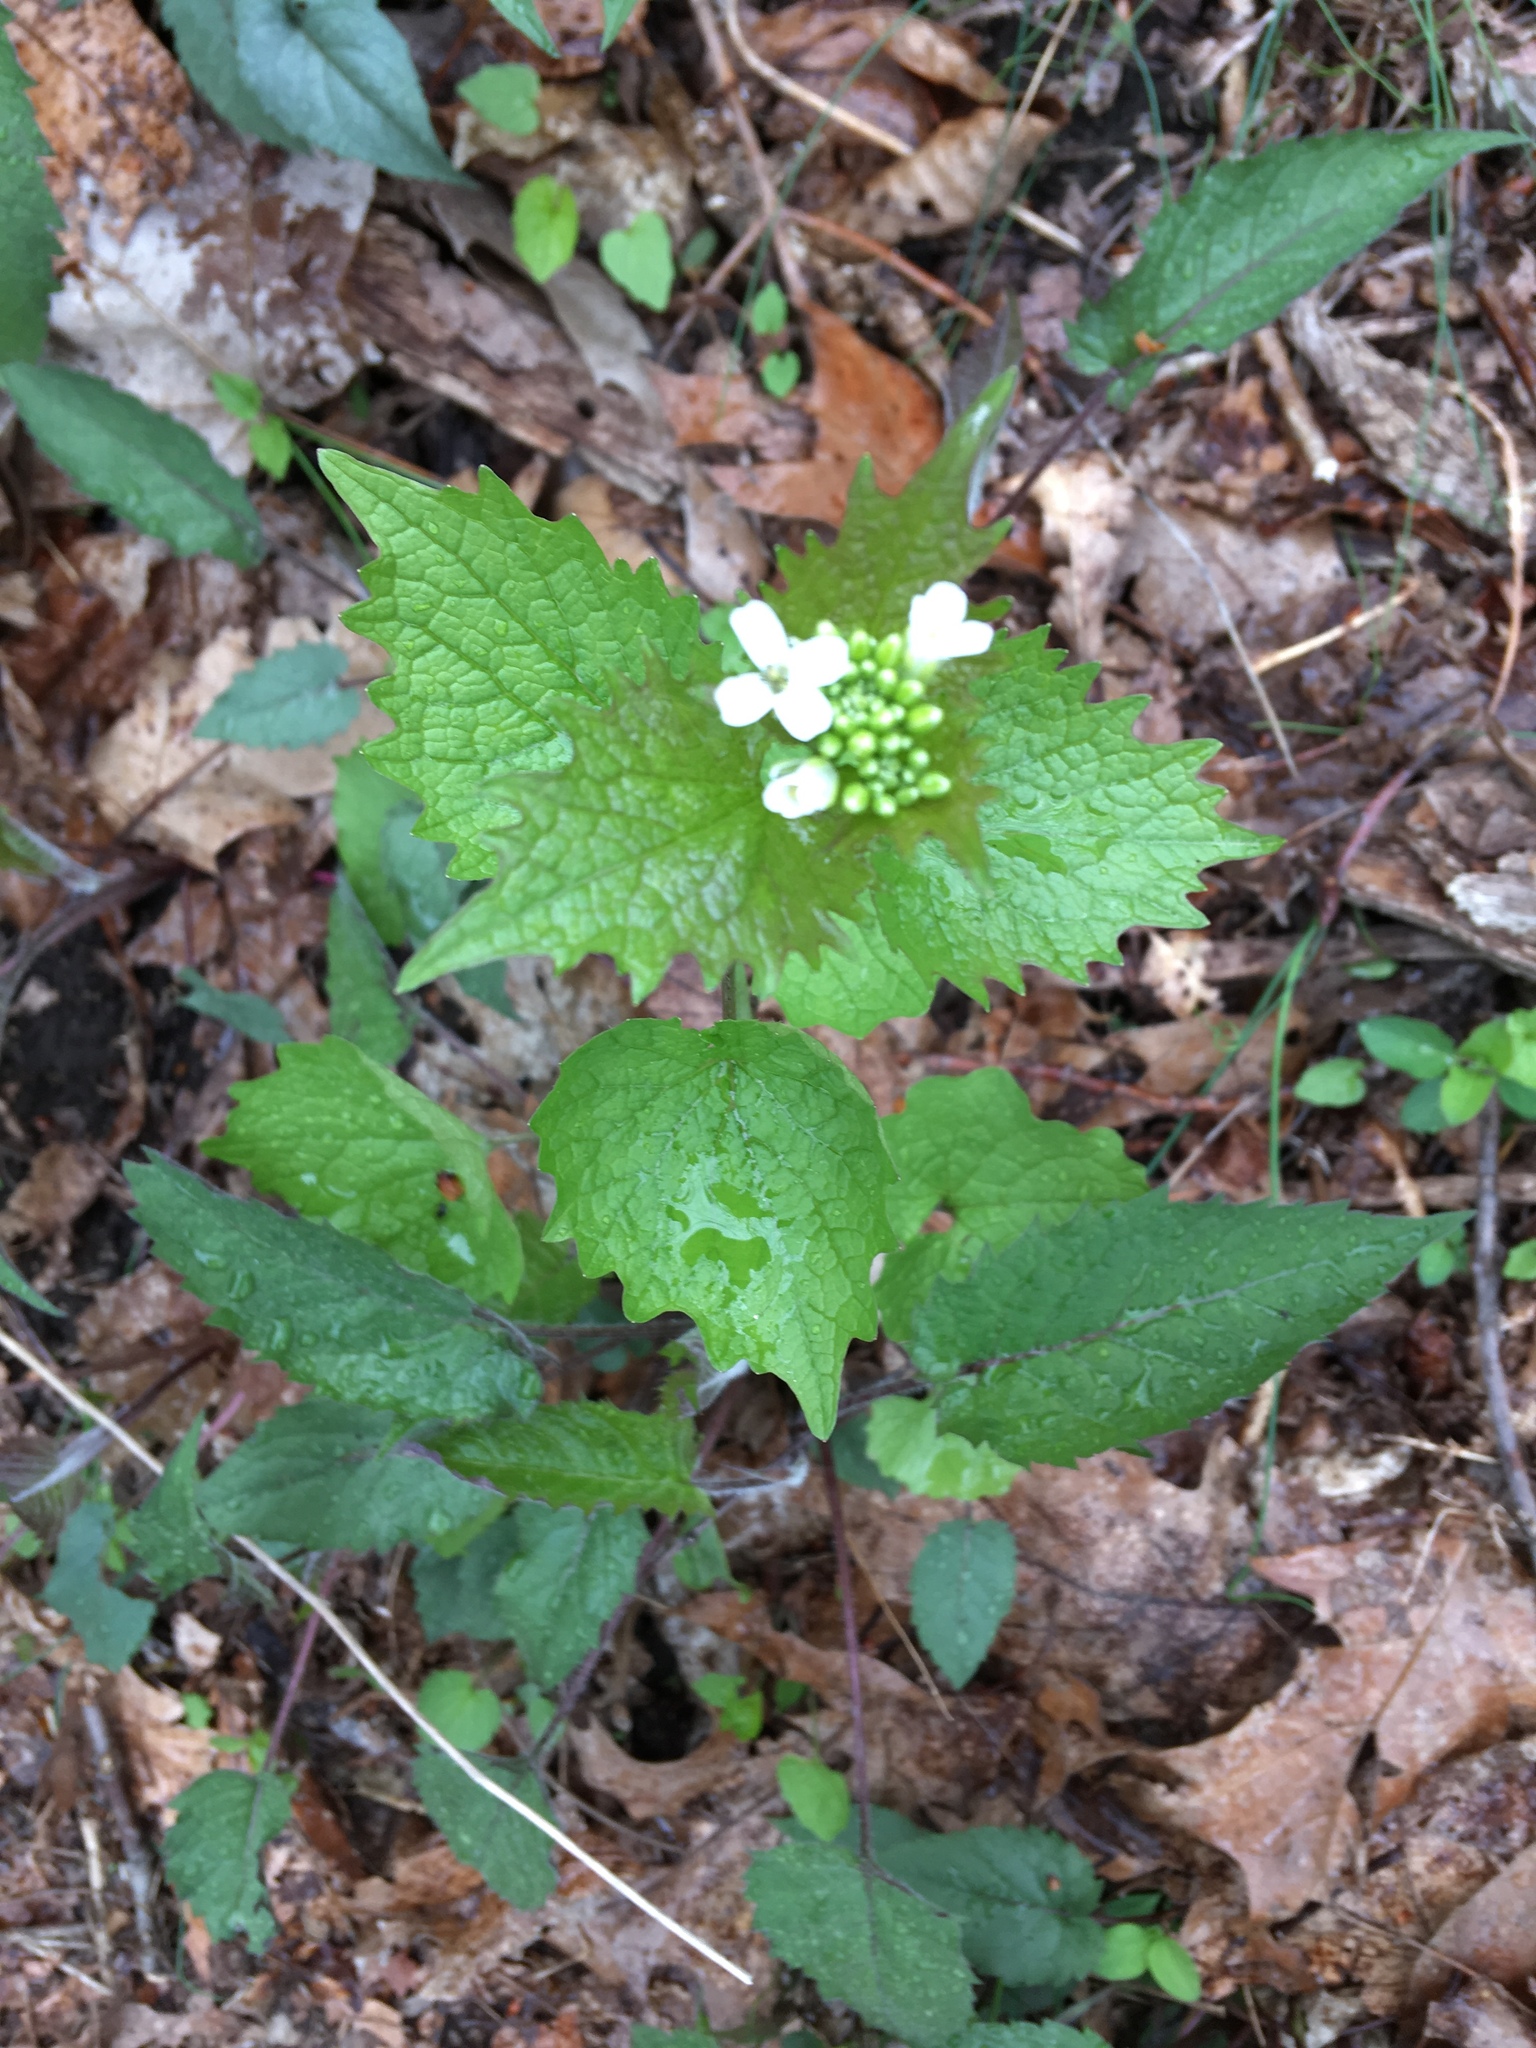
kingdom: Plantae
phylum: Tracheophyta
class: Magnoliopsida
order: Brassicales
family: Brassicaceae
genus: Alliaria
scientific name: Alliaria petiolata
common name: Garlic mustard
